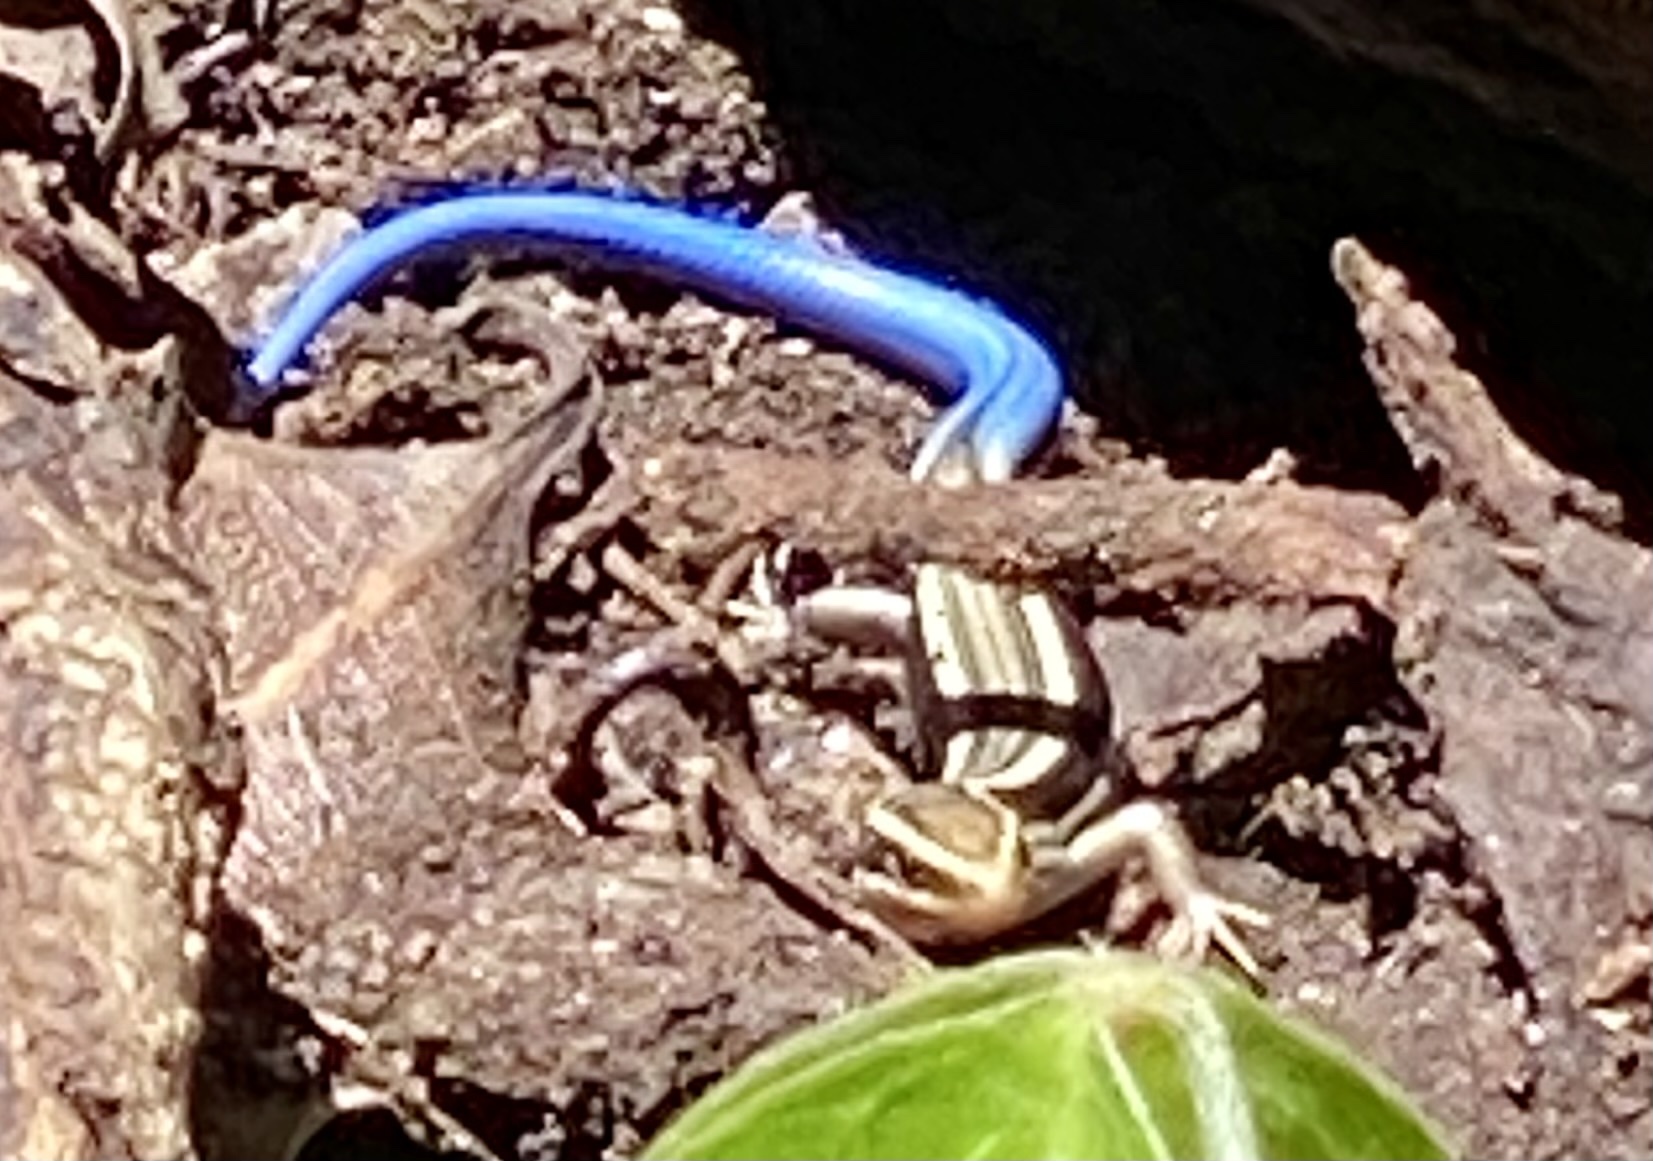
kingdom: Animalia
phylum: Chordata
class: Squamata
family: Scincidae
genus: Plestiodon
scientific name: Plestiodon skiltonianus
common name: Coronado island skink [interparietalis]
